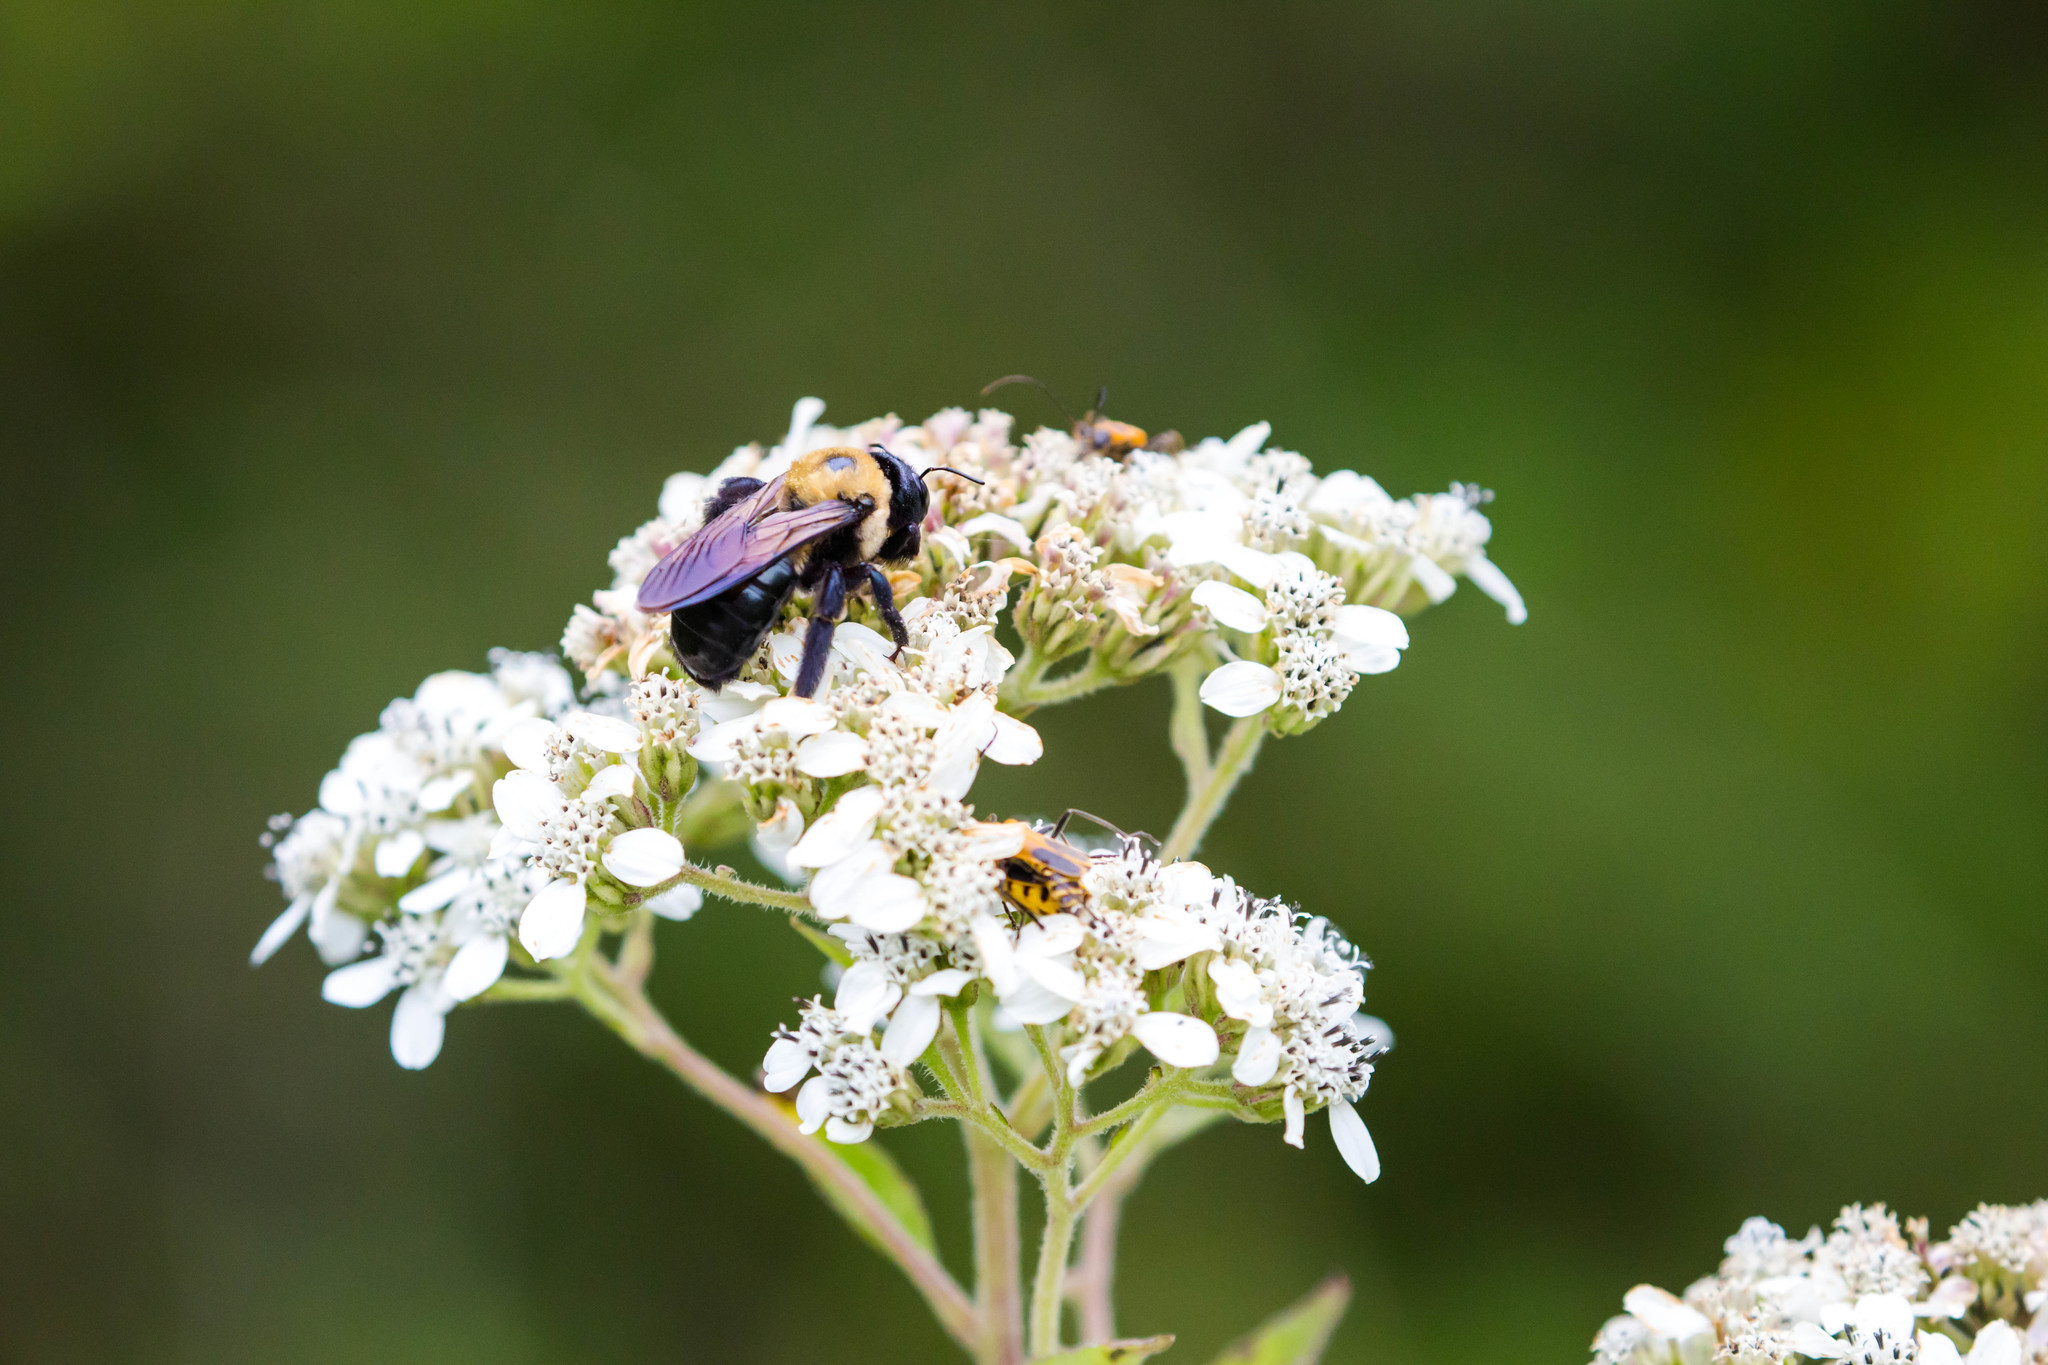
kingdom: Animalia
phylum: Arthropoda
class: Insecta
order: Hymenoptera
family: Apidae
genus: Xylocopa
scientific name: Xylocopa virginica
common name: Carpenter bee
